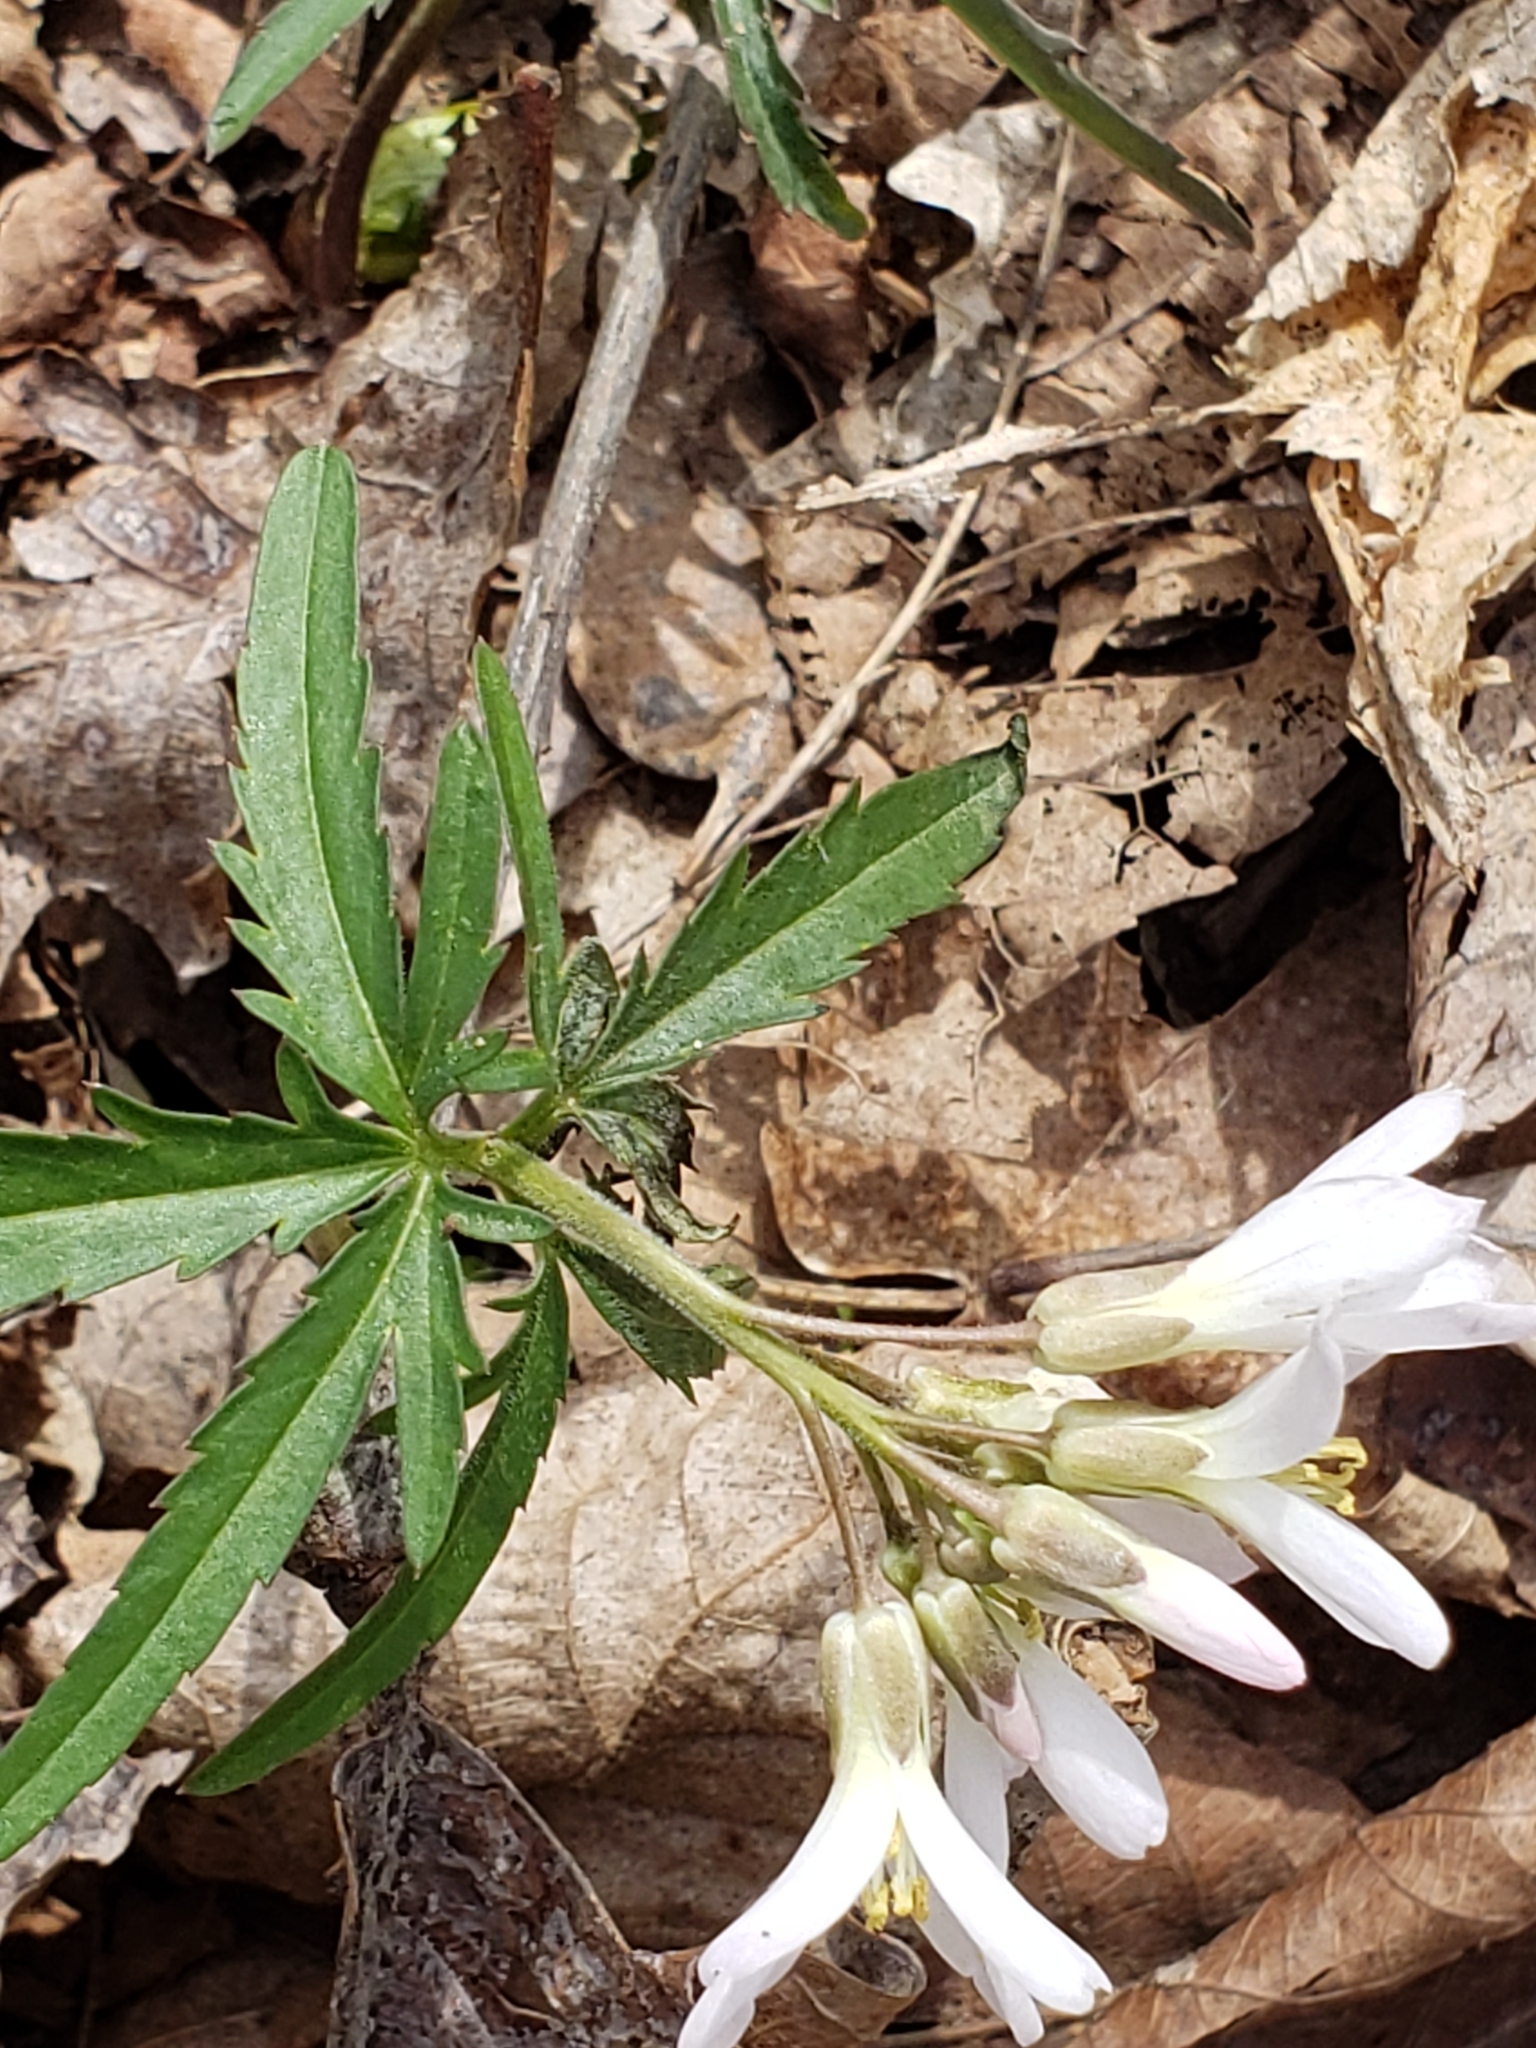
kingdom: Plantae
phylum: Tracheophyta
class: Magnoliopsida
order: Brassicales
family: Brassicaceae
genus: Cardamine
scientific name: Cardamine concatenata
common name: Cut-leaf toothcup
